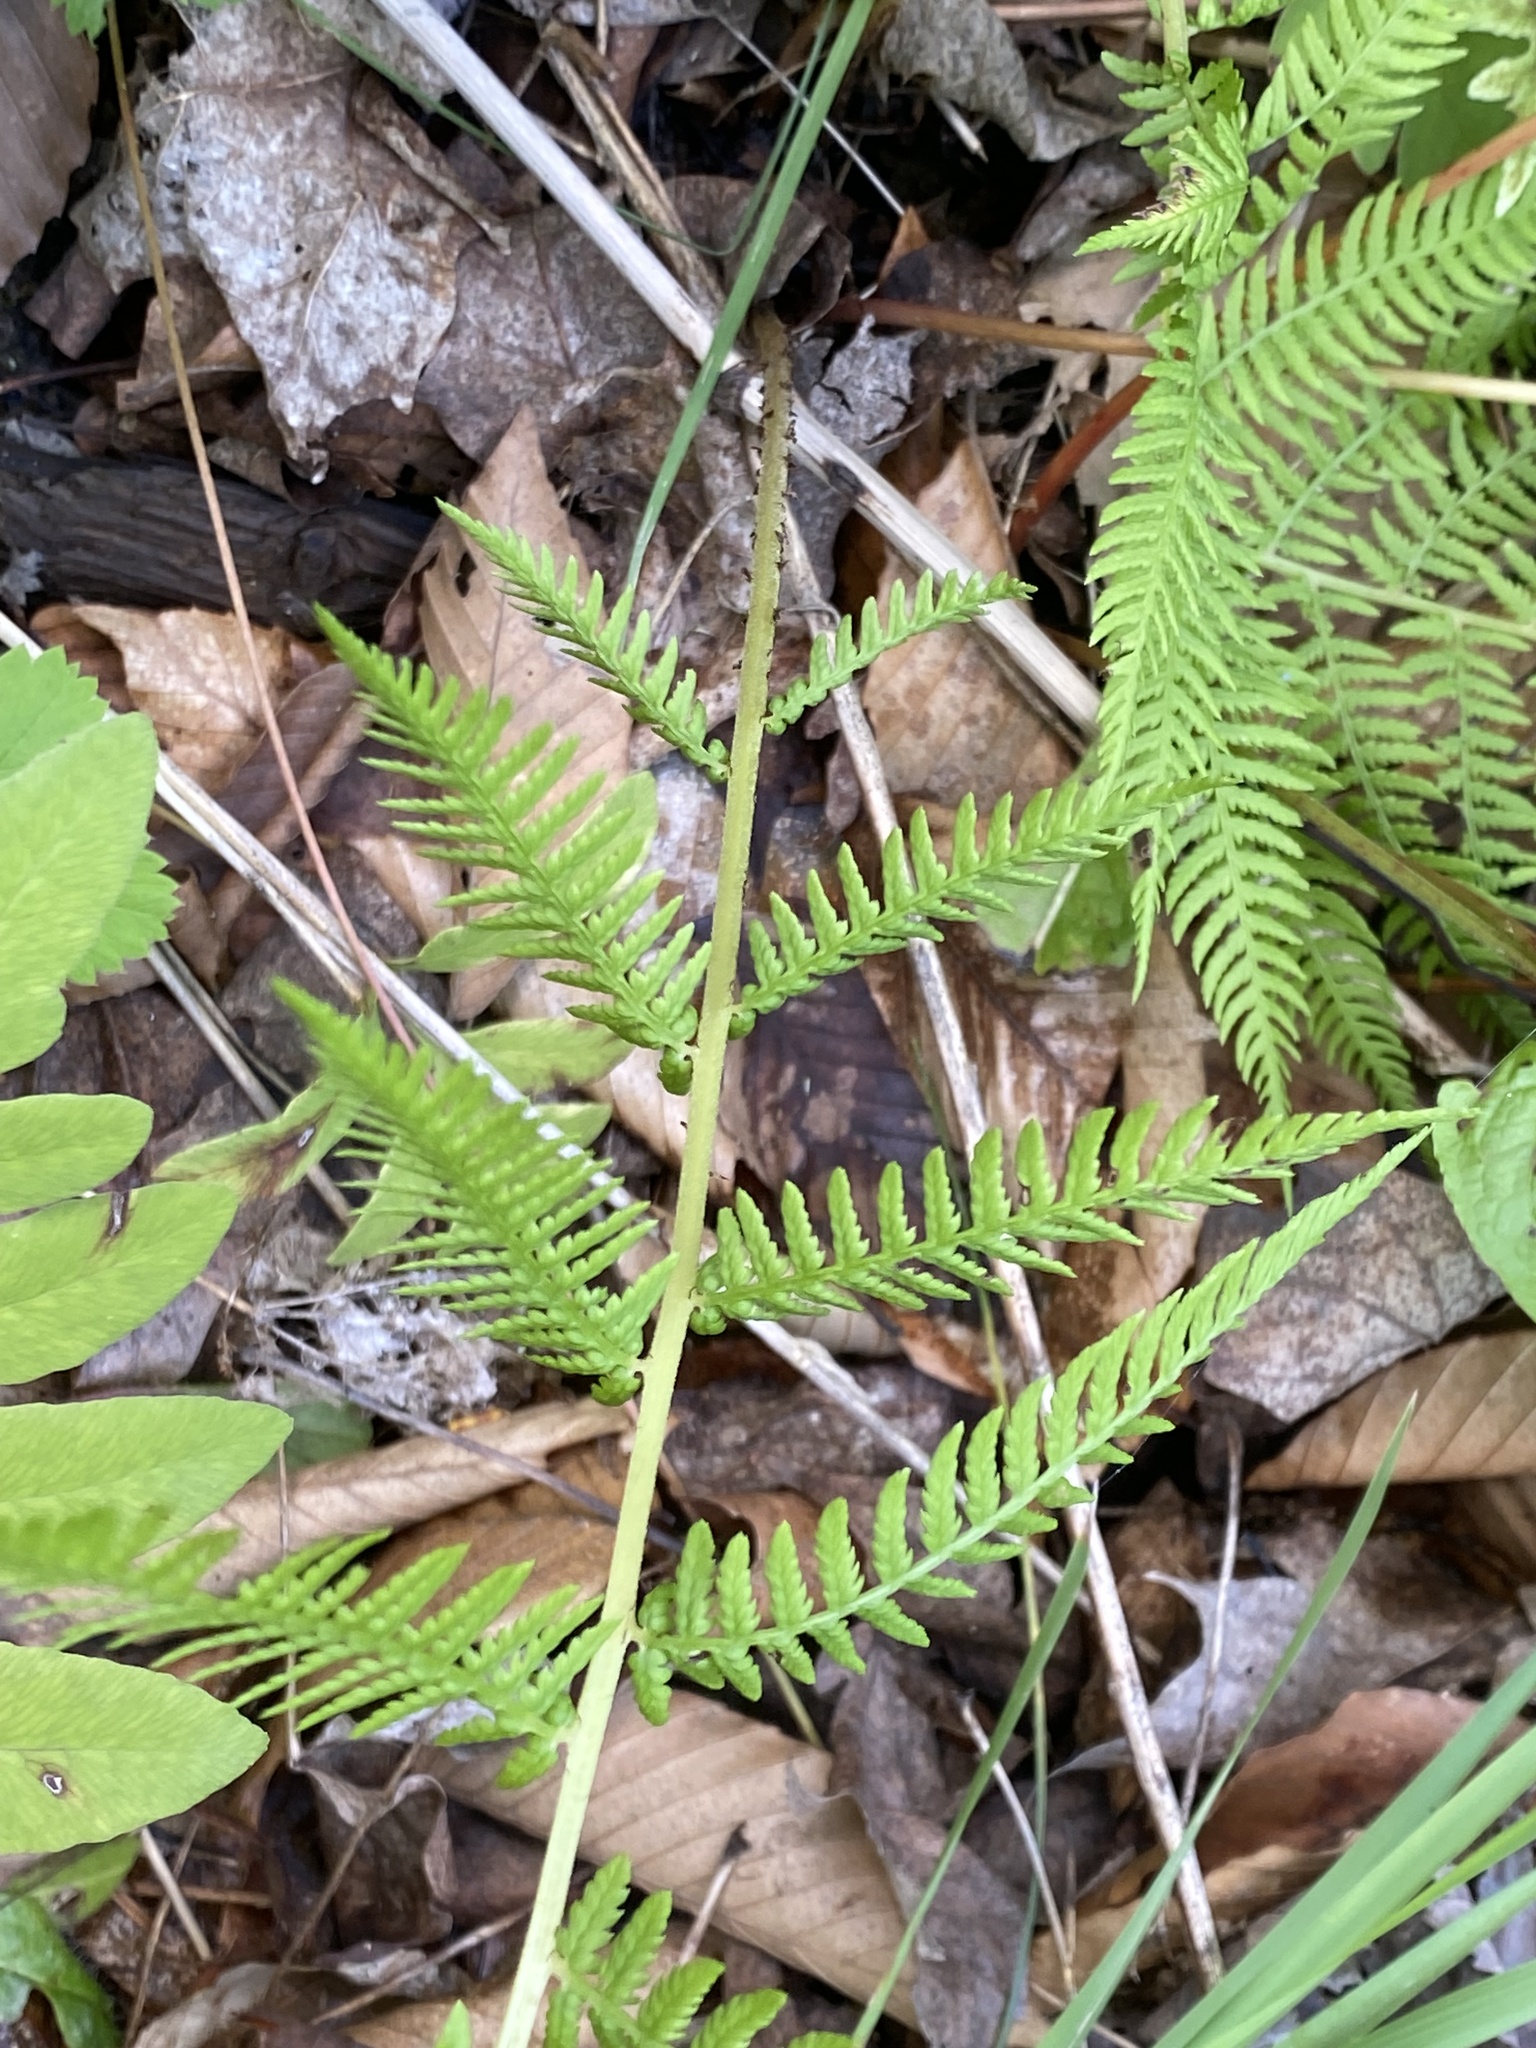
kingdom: Plantae
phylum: Tracheophyta
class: Polypodiopsida
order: Polypodiales
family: Athyriaceae
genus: Athyrium
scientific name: Athyrium angustum
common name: Northern lady fern
